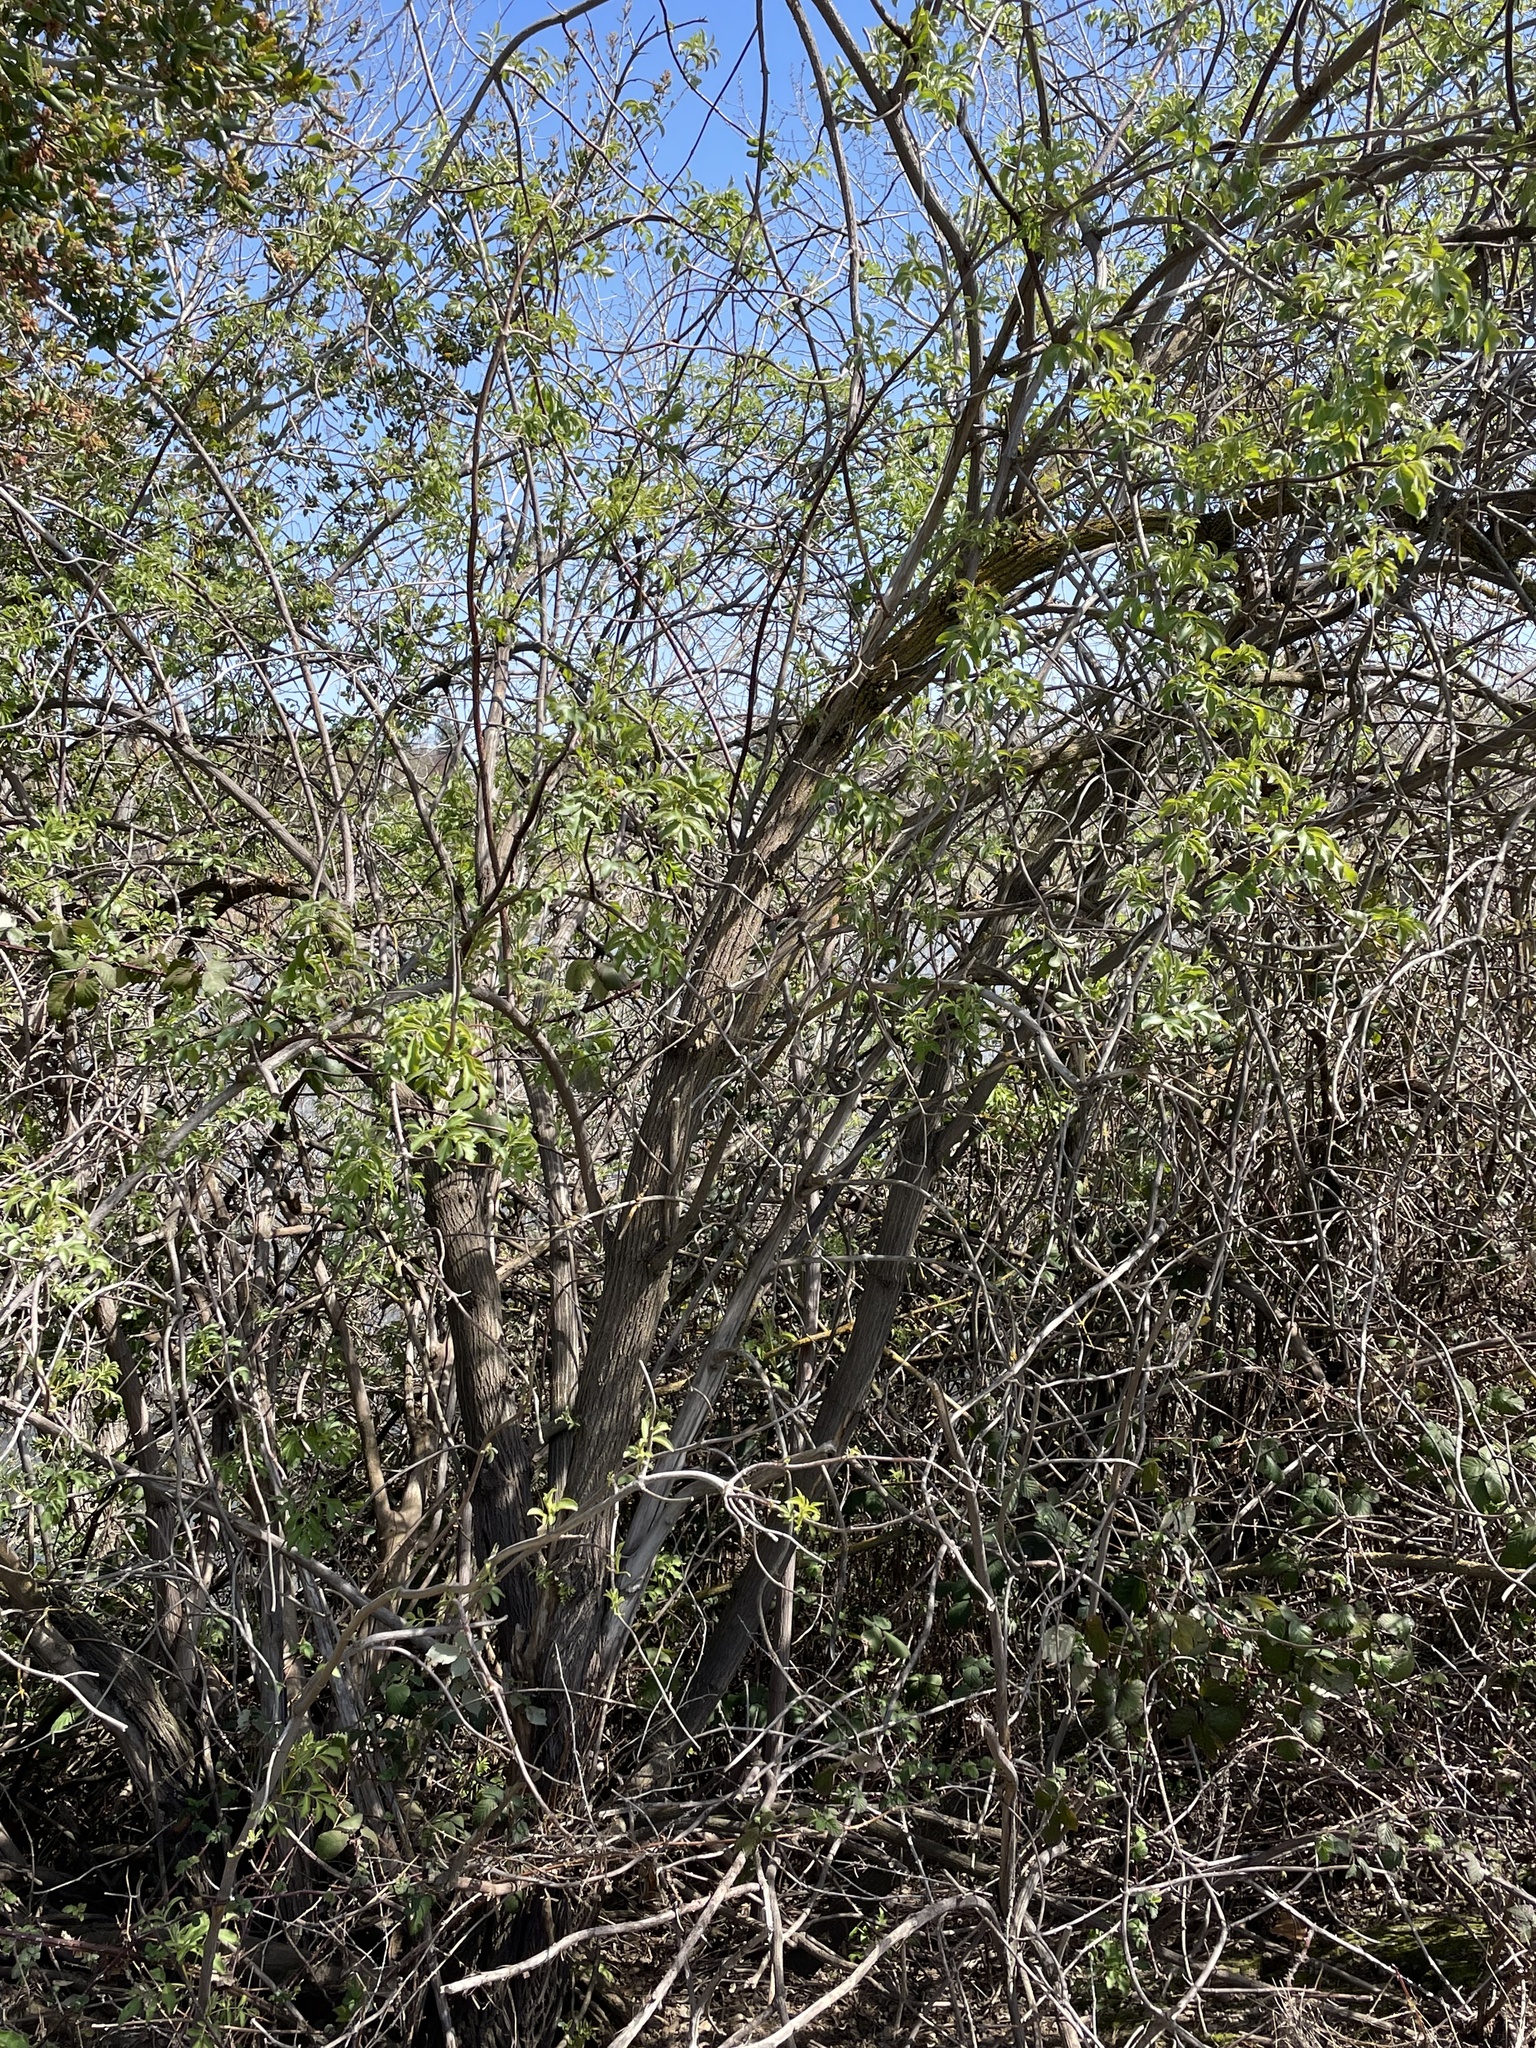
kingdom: Plantae
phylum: Tracheophyta
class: Magnoliopsida
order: Dipsacales
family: Viburnaceae
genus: Sambucus
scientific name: Sambucus cerulea
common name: Blue elder
